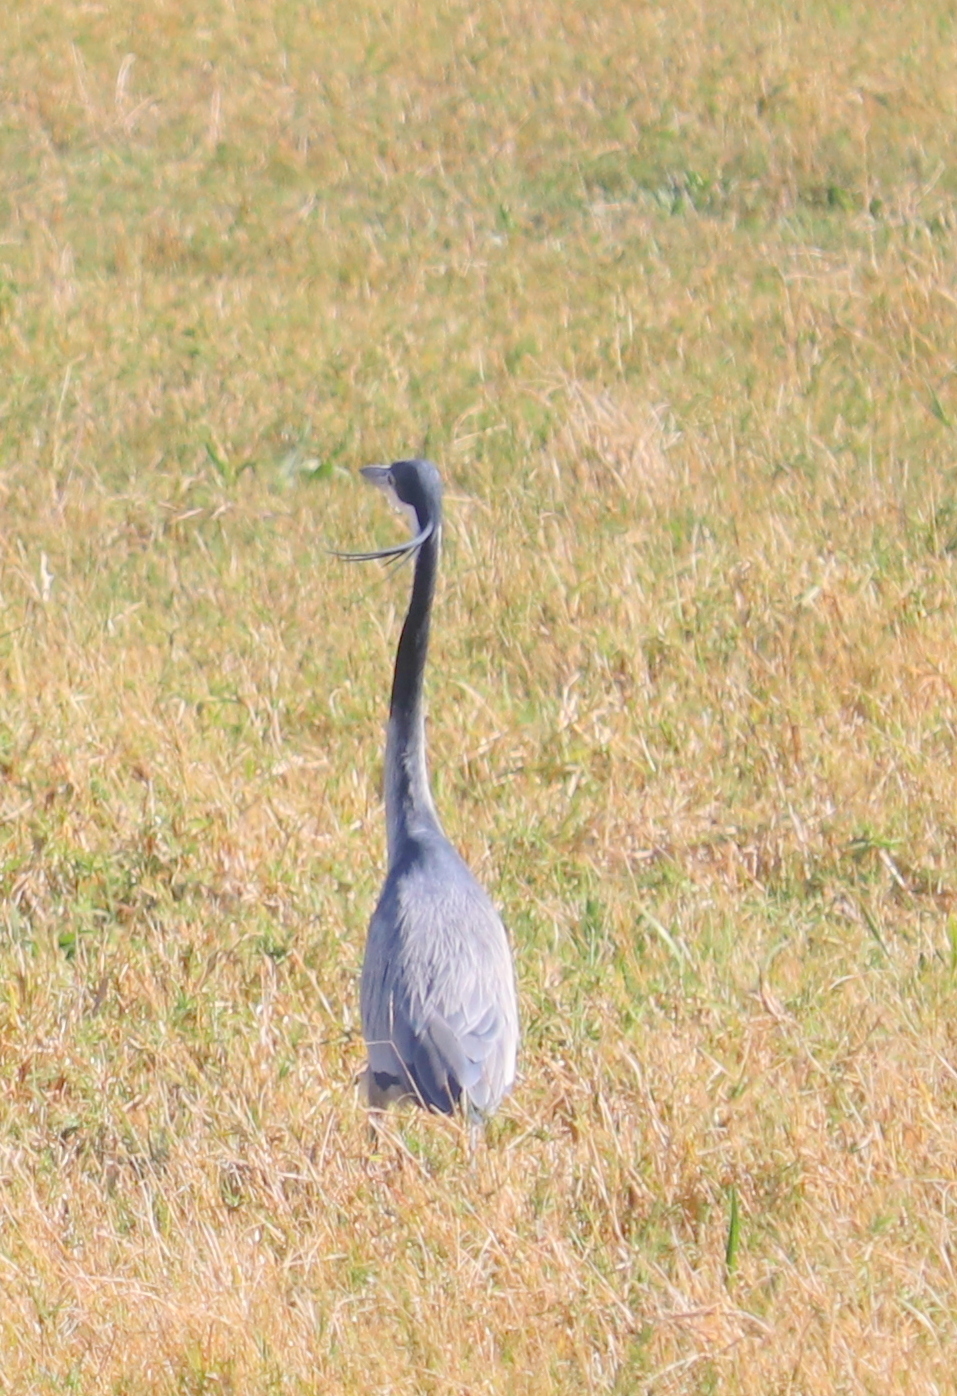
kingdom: Animalia
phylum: Chordata
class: Aves
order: Pelecaniformes
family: Ardeidae
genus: Ardea
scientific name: Ardea melanocephala
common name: Black-headed heron
